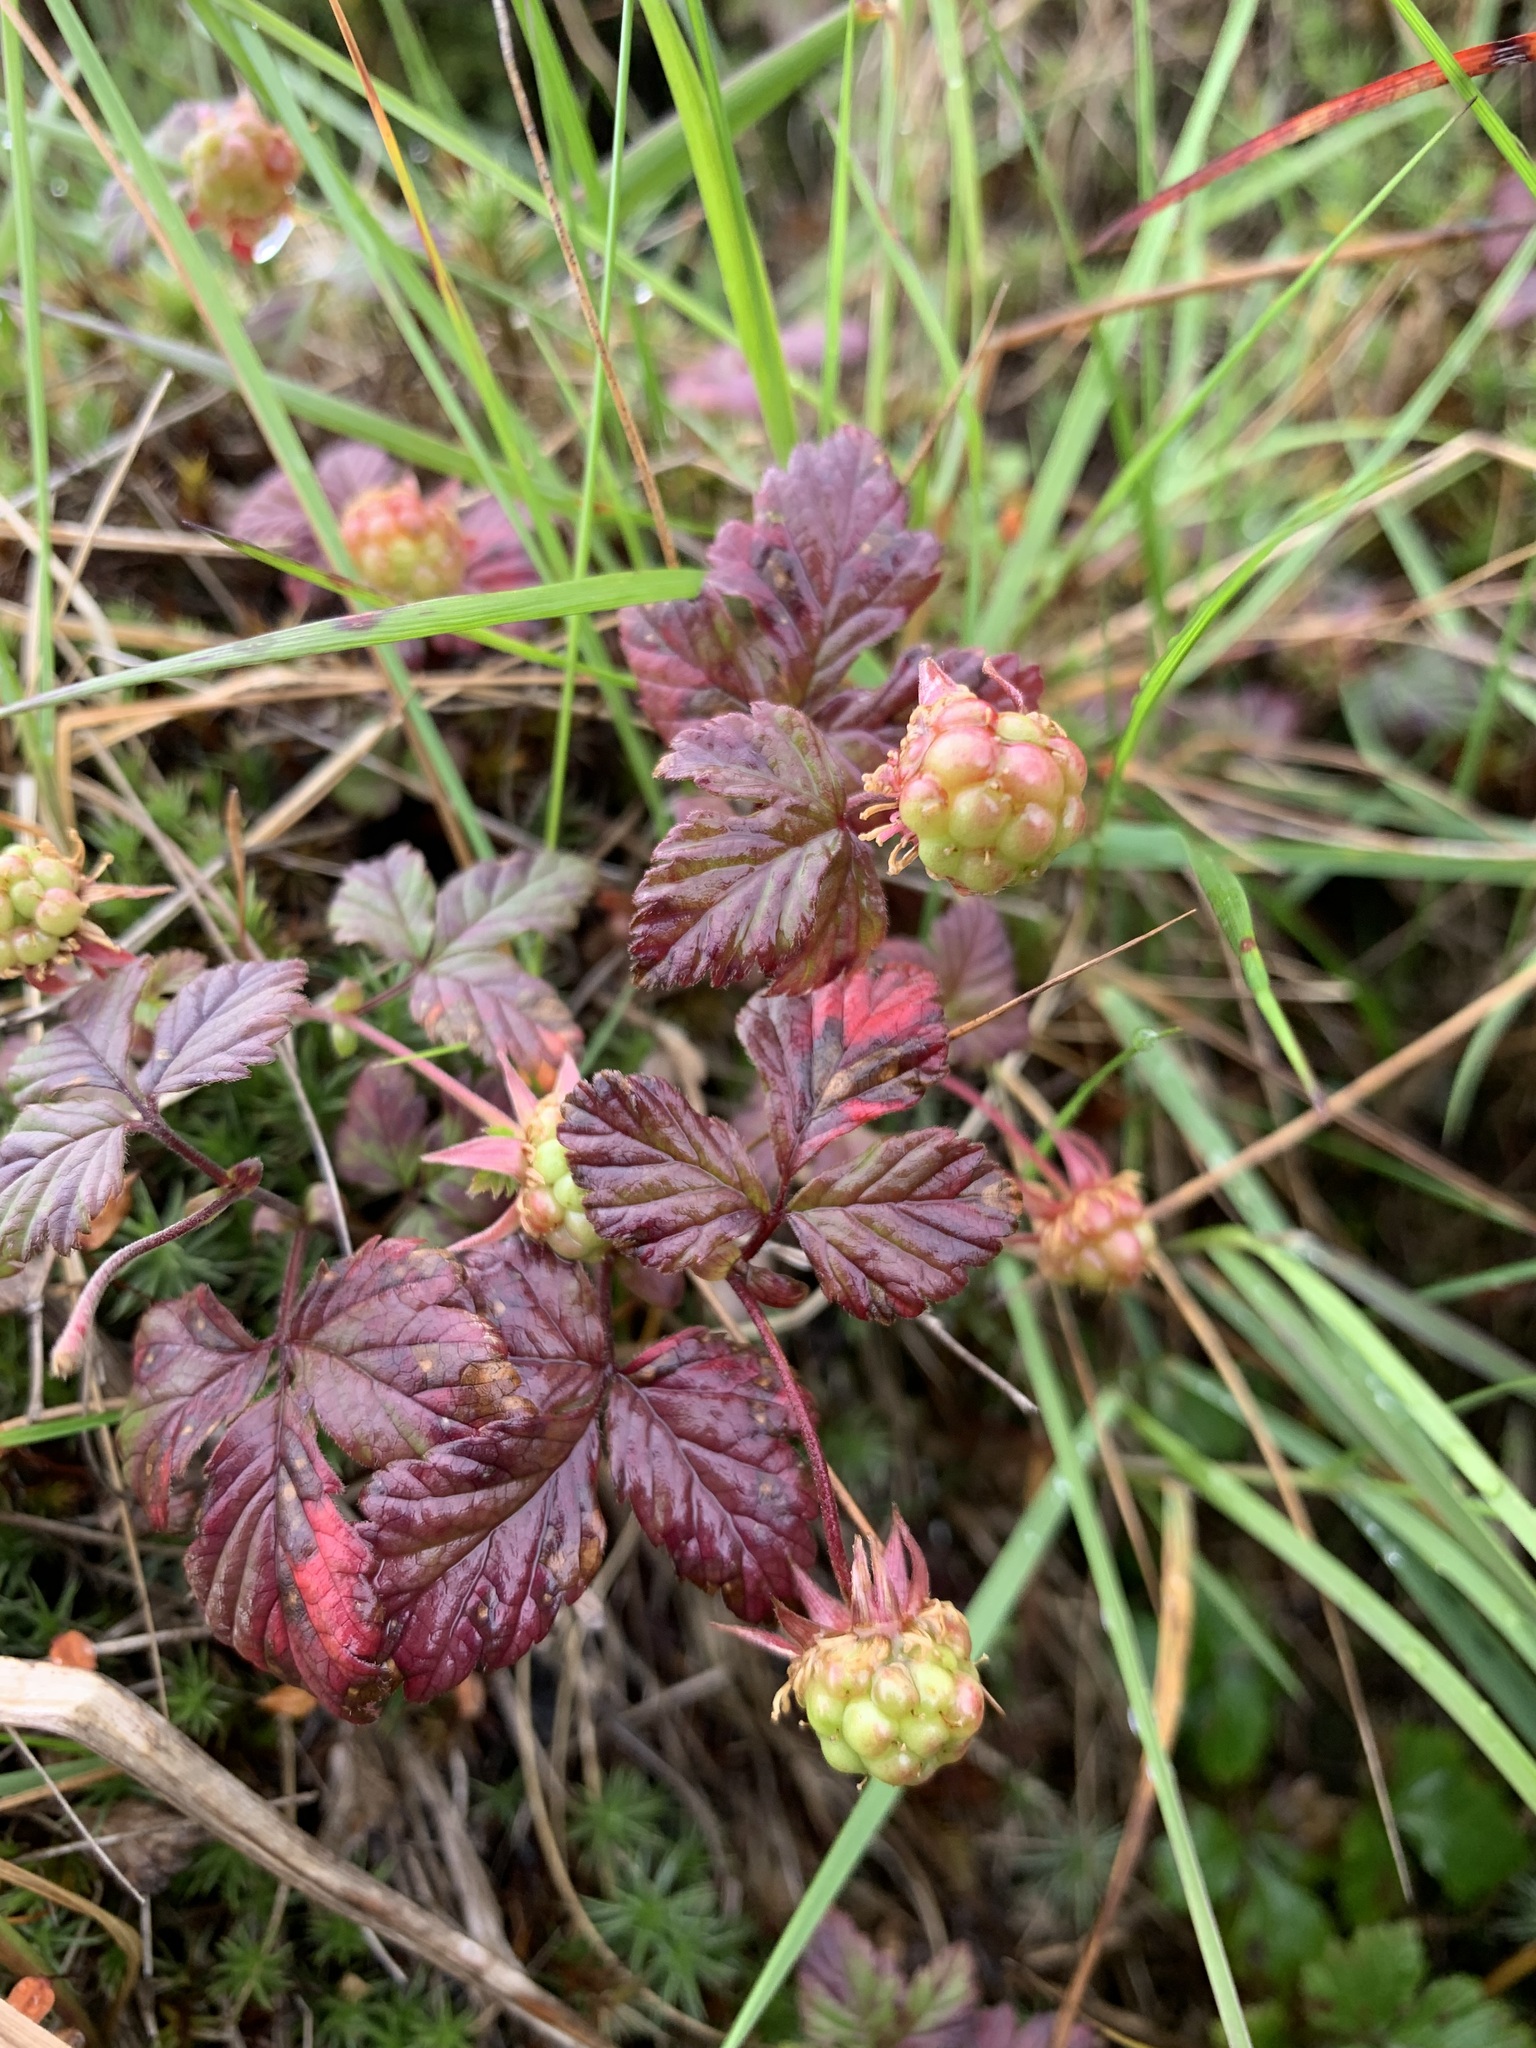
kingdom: Plantae
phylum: Tracheophyta
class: Magnoliopsida
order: Rosales
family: Rosaceae
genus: Rubus
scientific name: Rubus arcticus
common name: Arctic bramble
